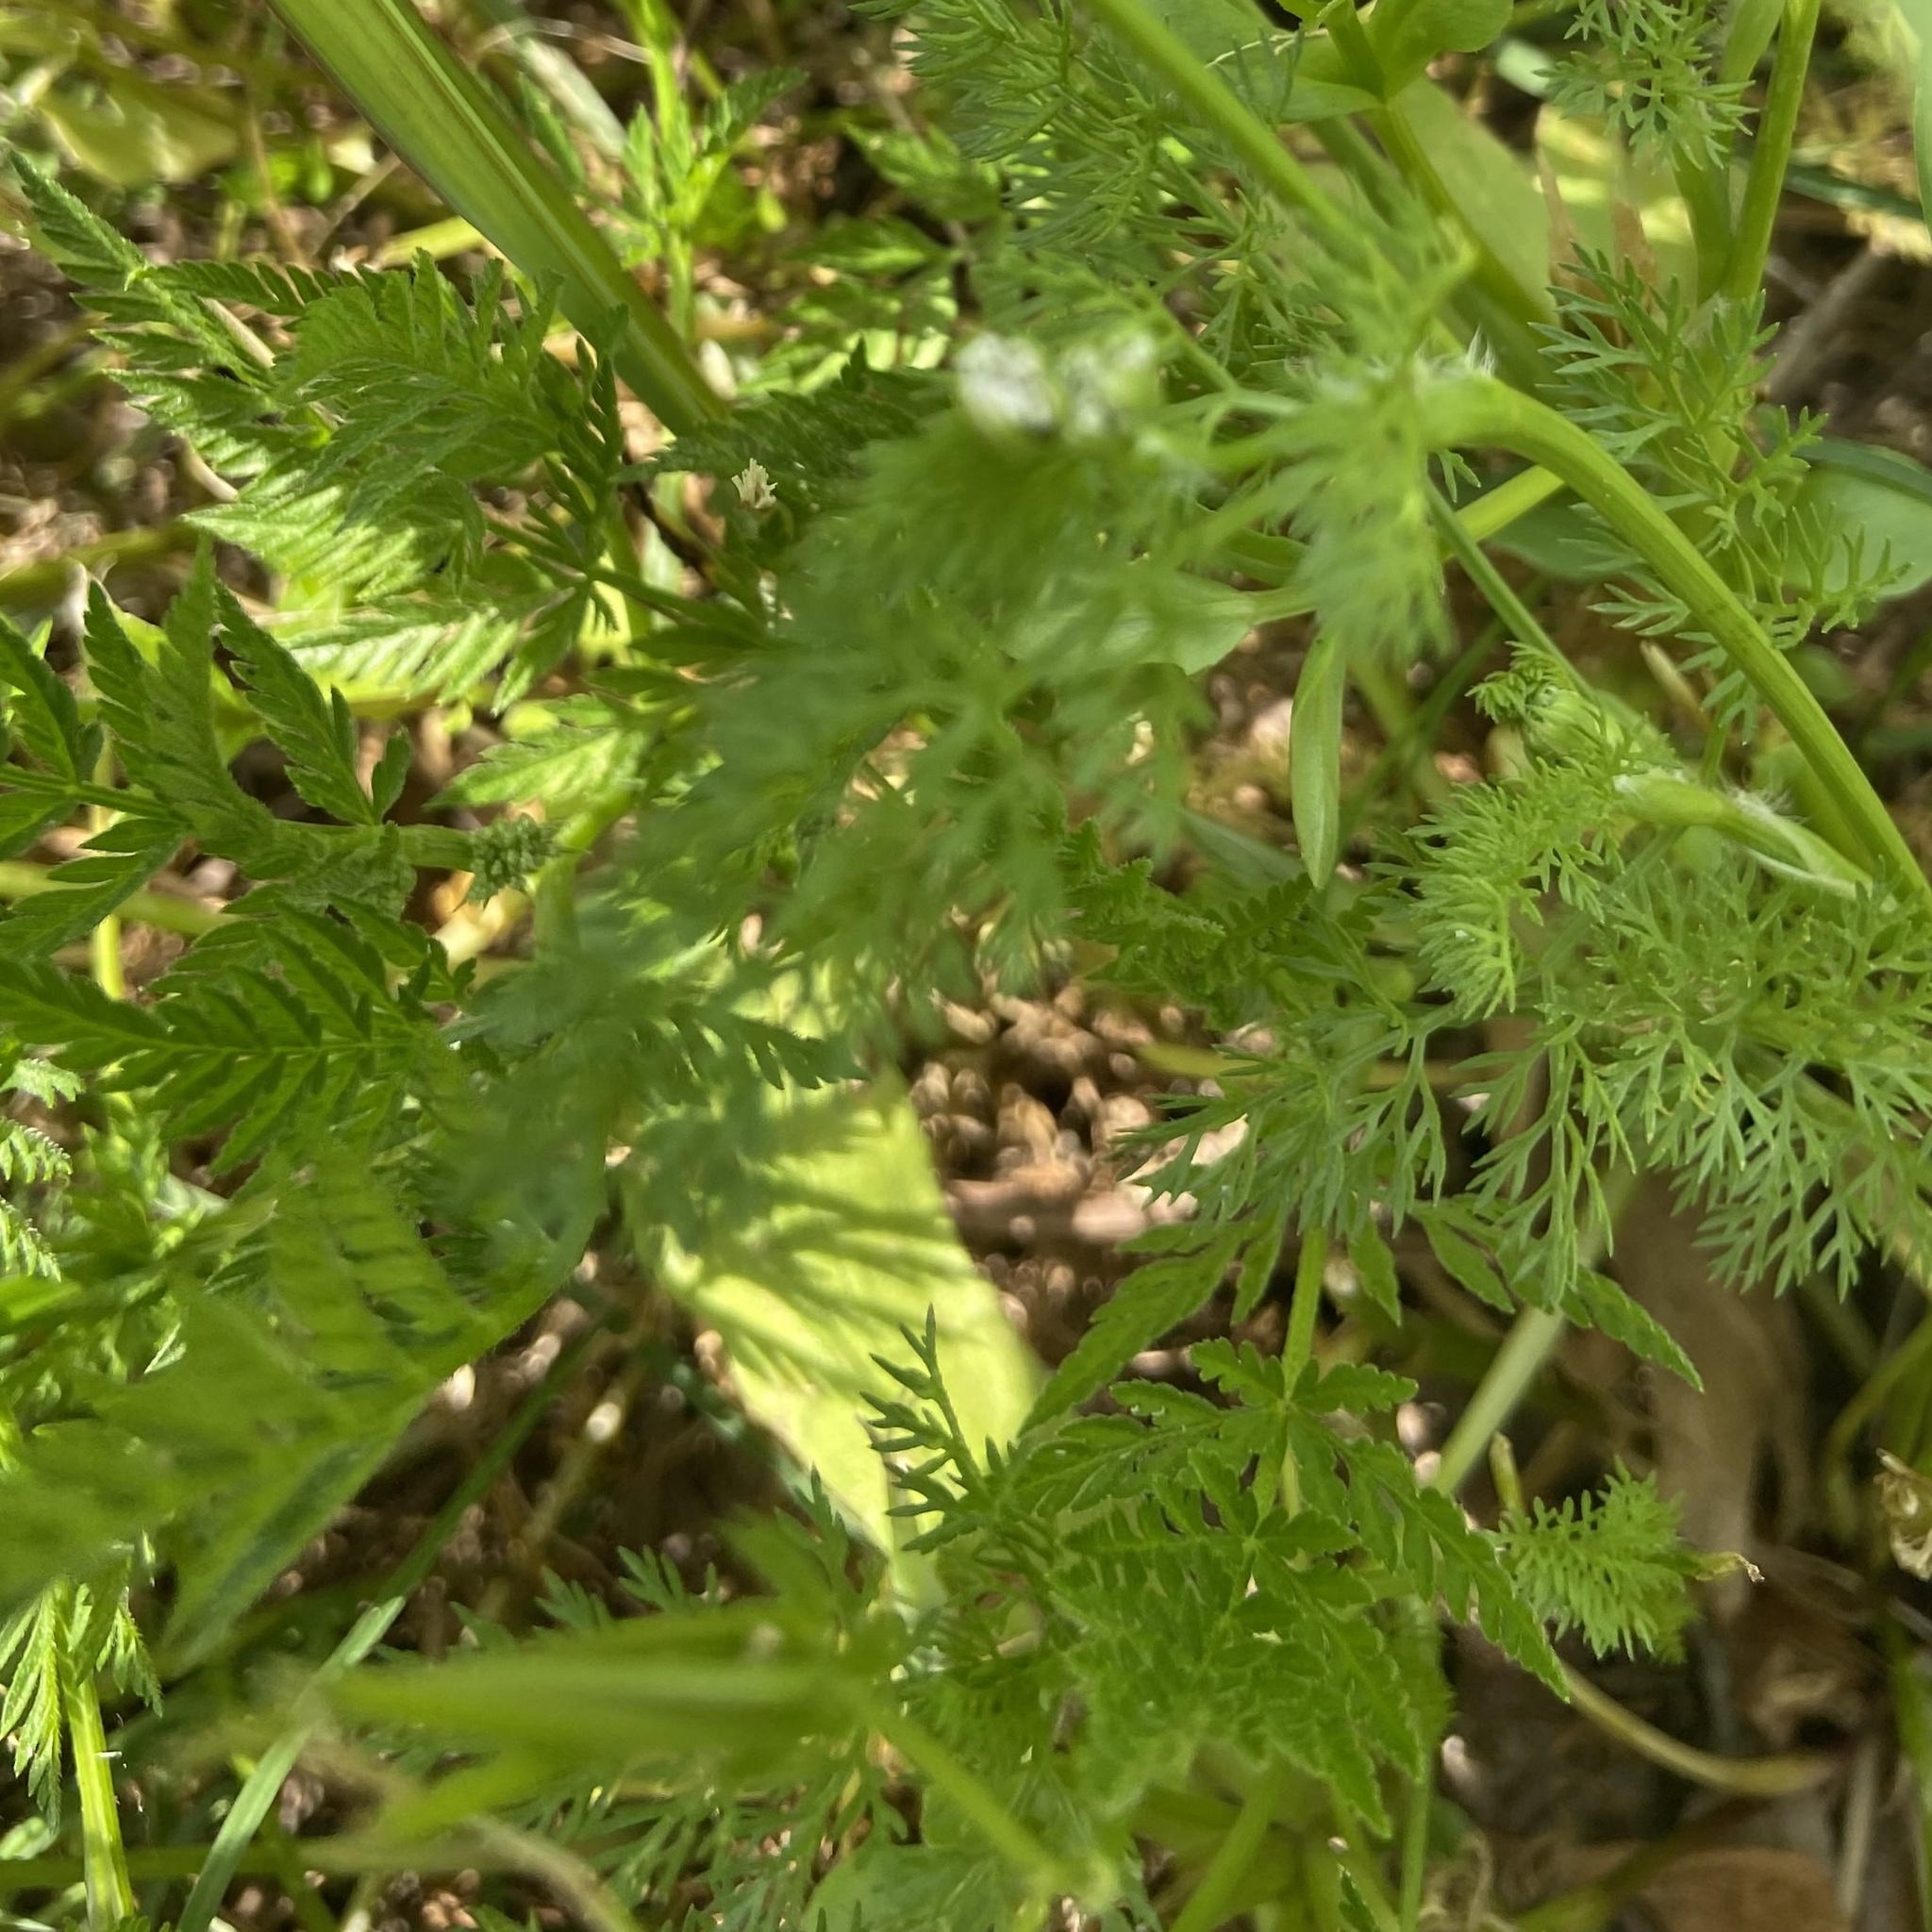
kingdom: Plantae
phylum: Tracheophyta
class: Magnoliopsida
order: Apiales
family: Apiaceae
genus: Scandix
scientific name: Scandix pecten-veneris
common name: Shepherd's-needle
